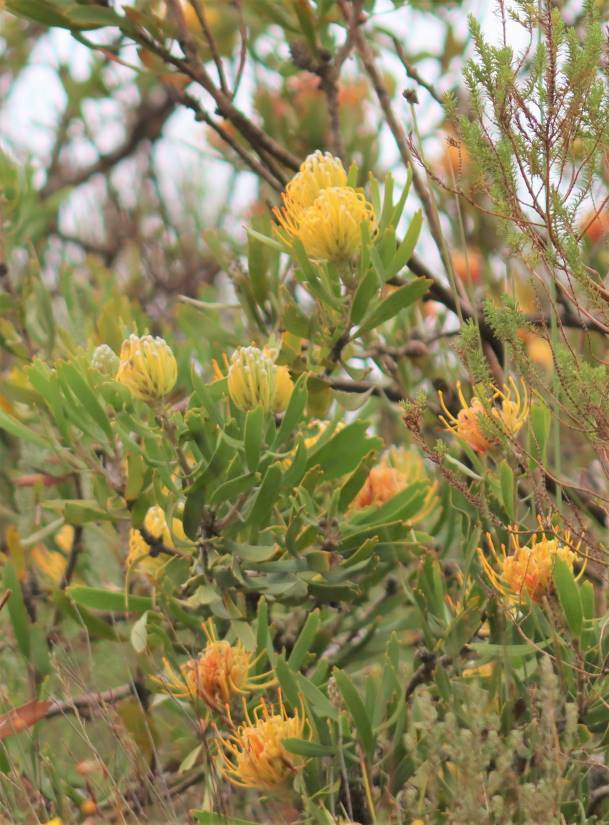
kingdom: Plantae
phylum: Tracheophyta
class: Magnoliopsida
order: Proteales
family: Proteaceae
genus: Leucospermum
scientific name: Leucospermum cuneiforme
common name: Common pincushion
